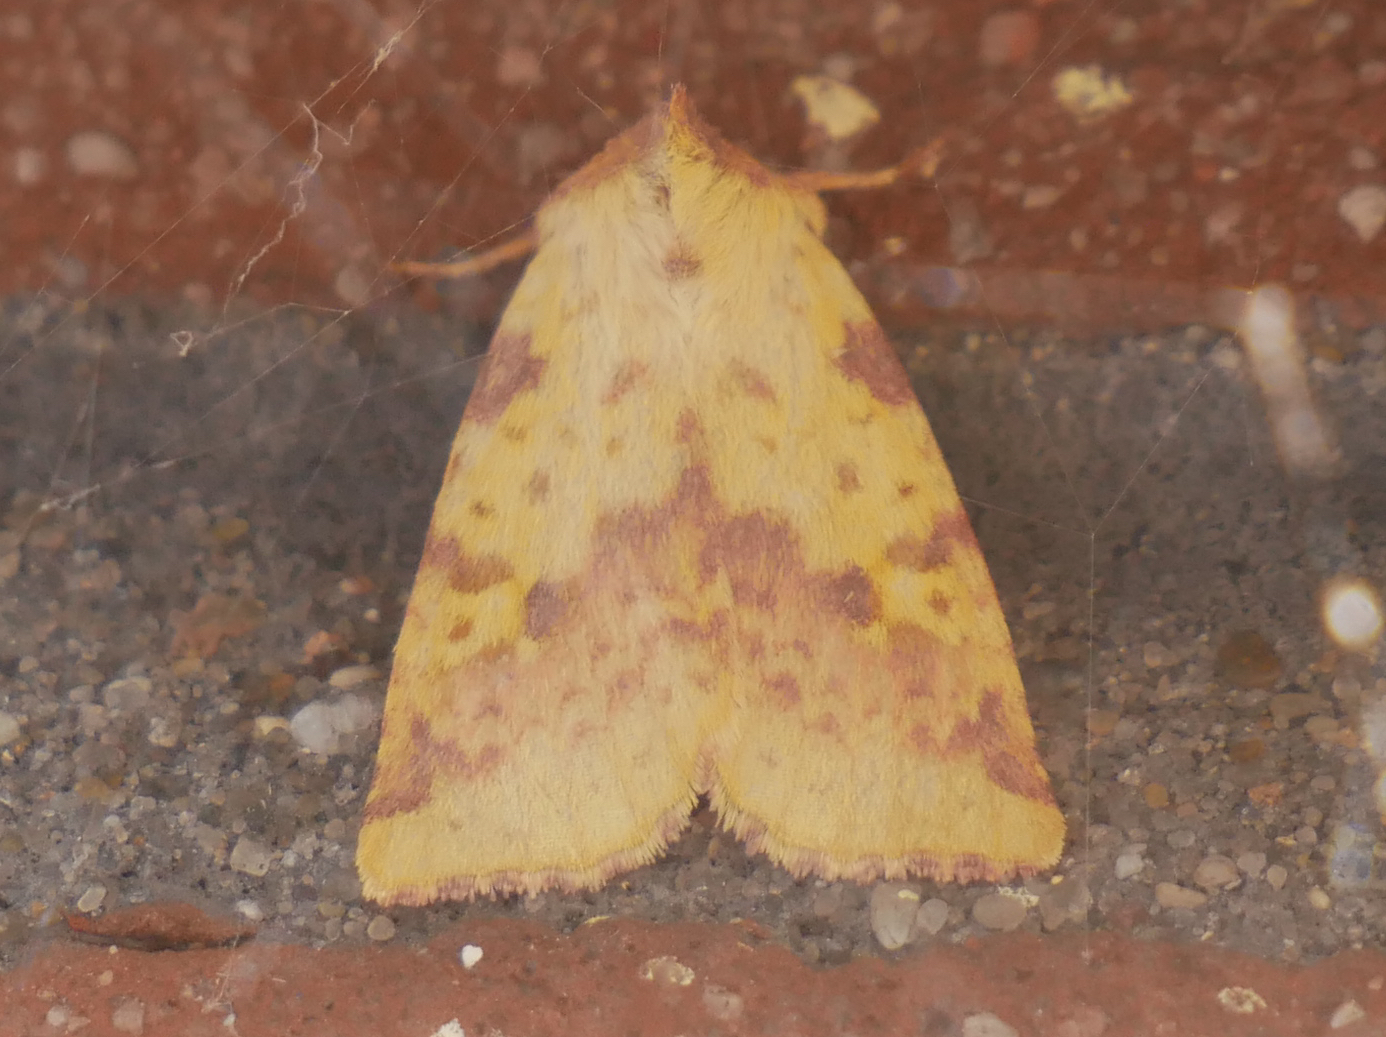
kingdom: Animalia
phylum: Arthropoda
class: Insecta
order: Lepidoptera
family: Noctuidae
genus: Xanthia
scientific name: Xanthia togata
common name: Pink-barred sallow
